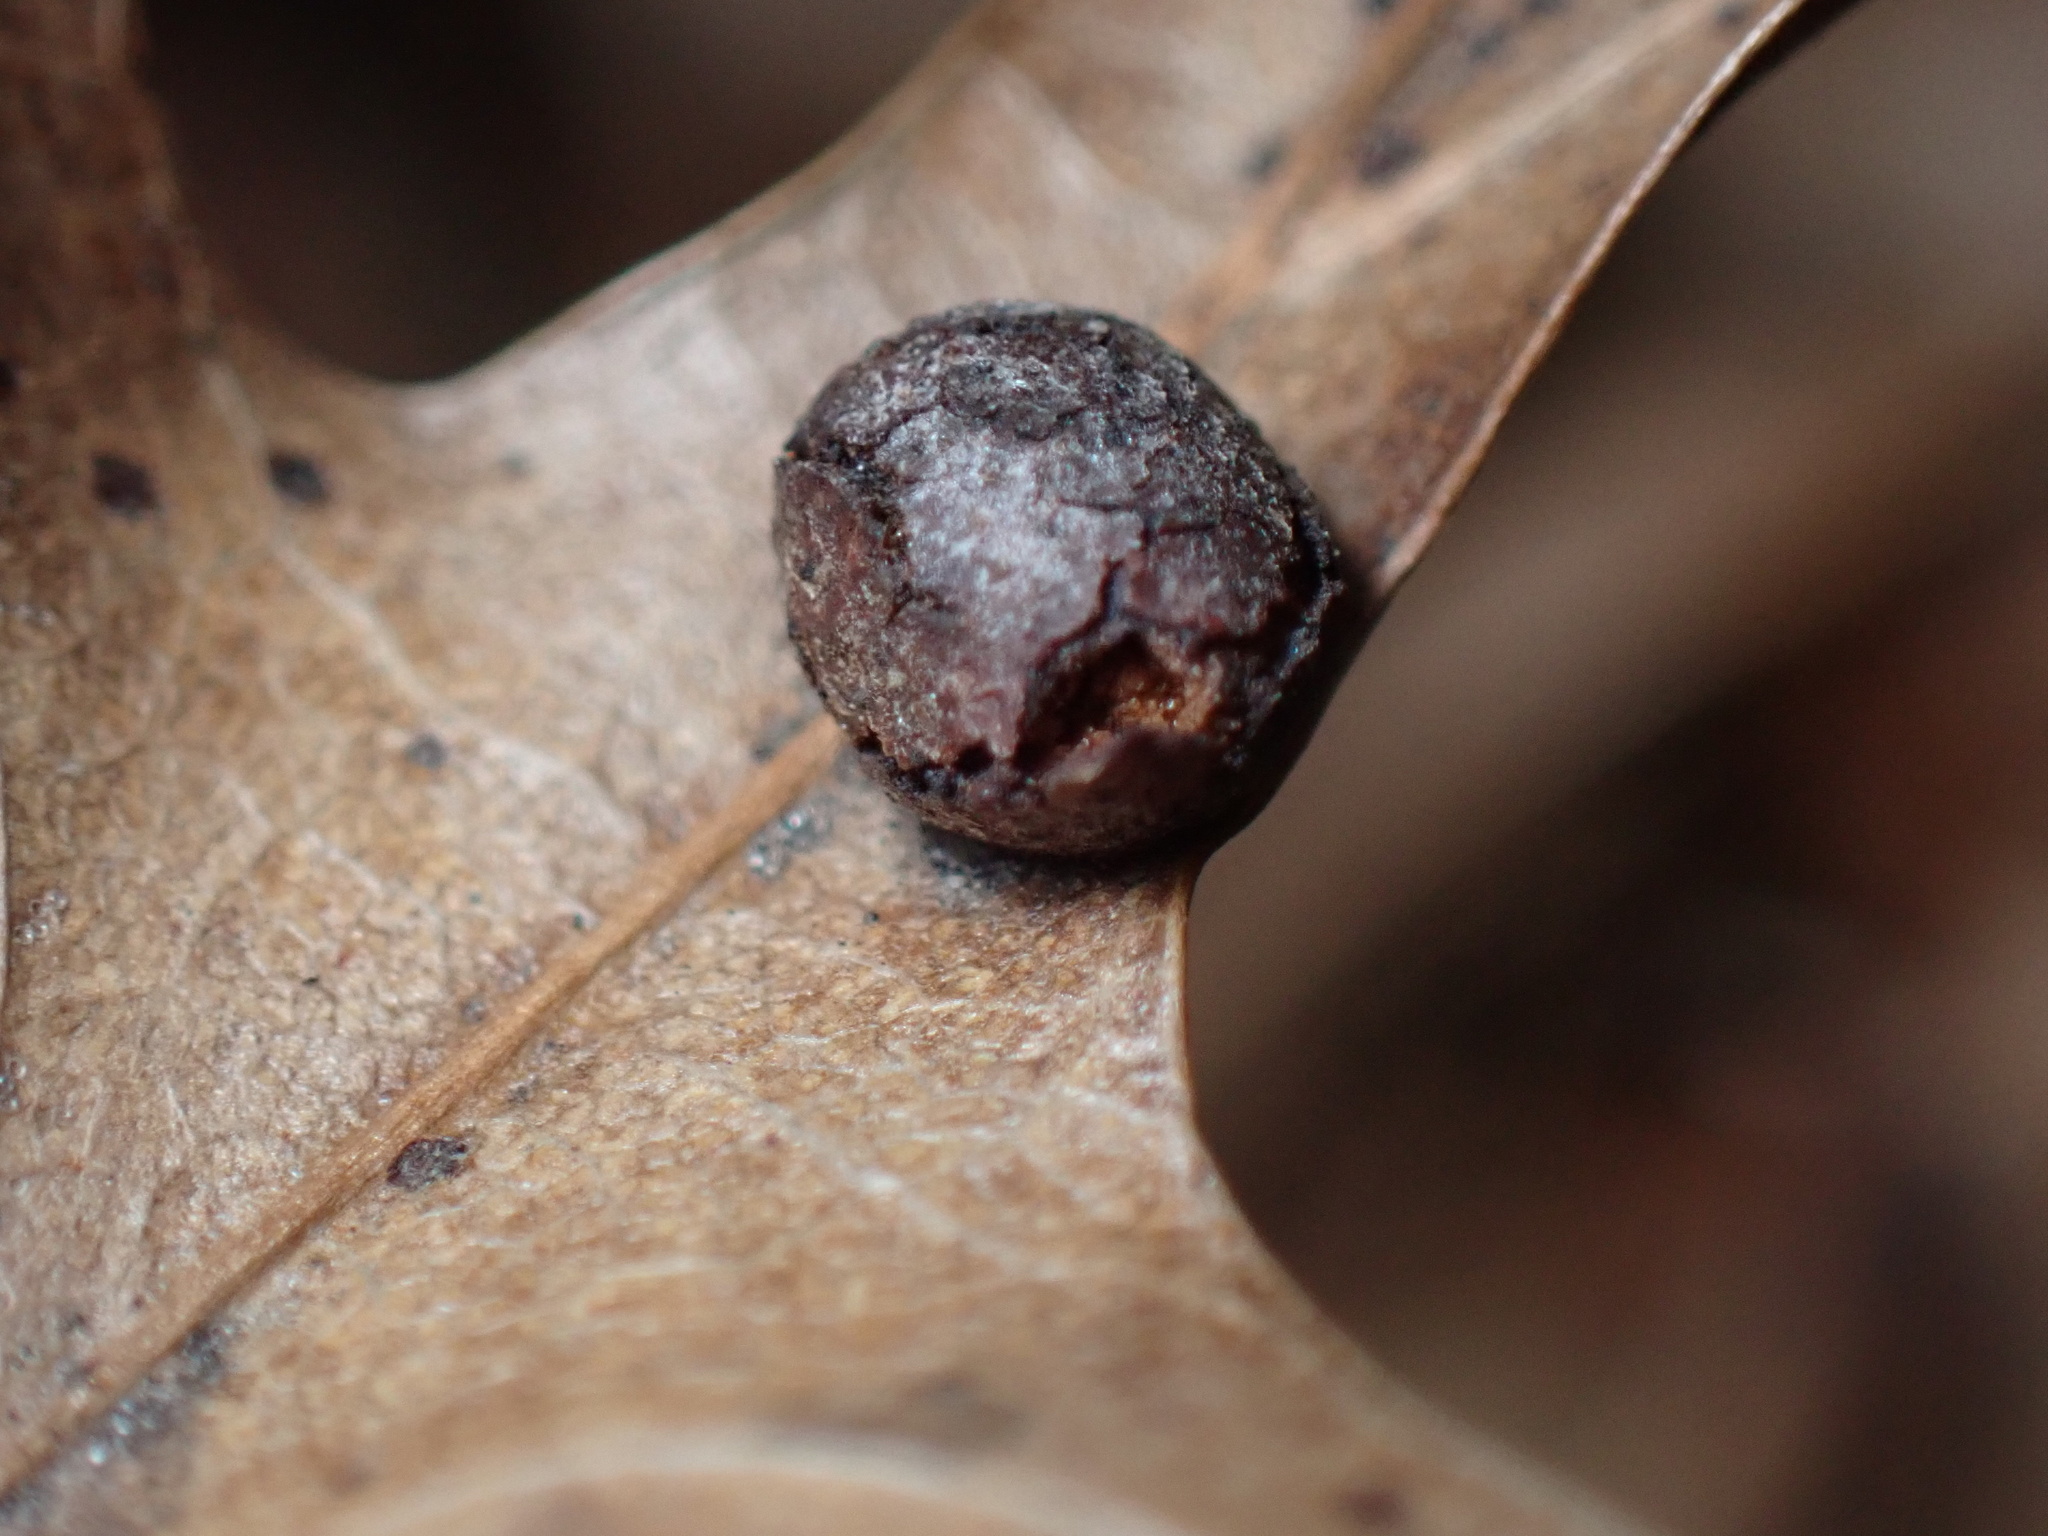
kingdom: Animalia
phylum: Arthropoda
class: Insecta
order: Diptera
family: Cecidomyiidae
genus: Polystepha
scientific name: Polystepha pilulae
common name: Oak leaf gall midge
